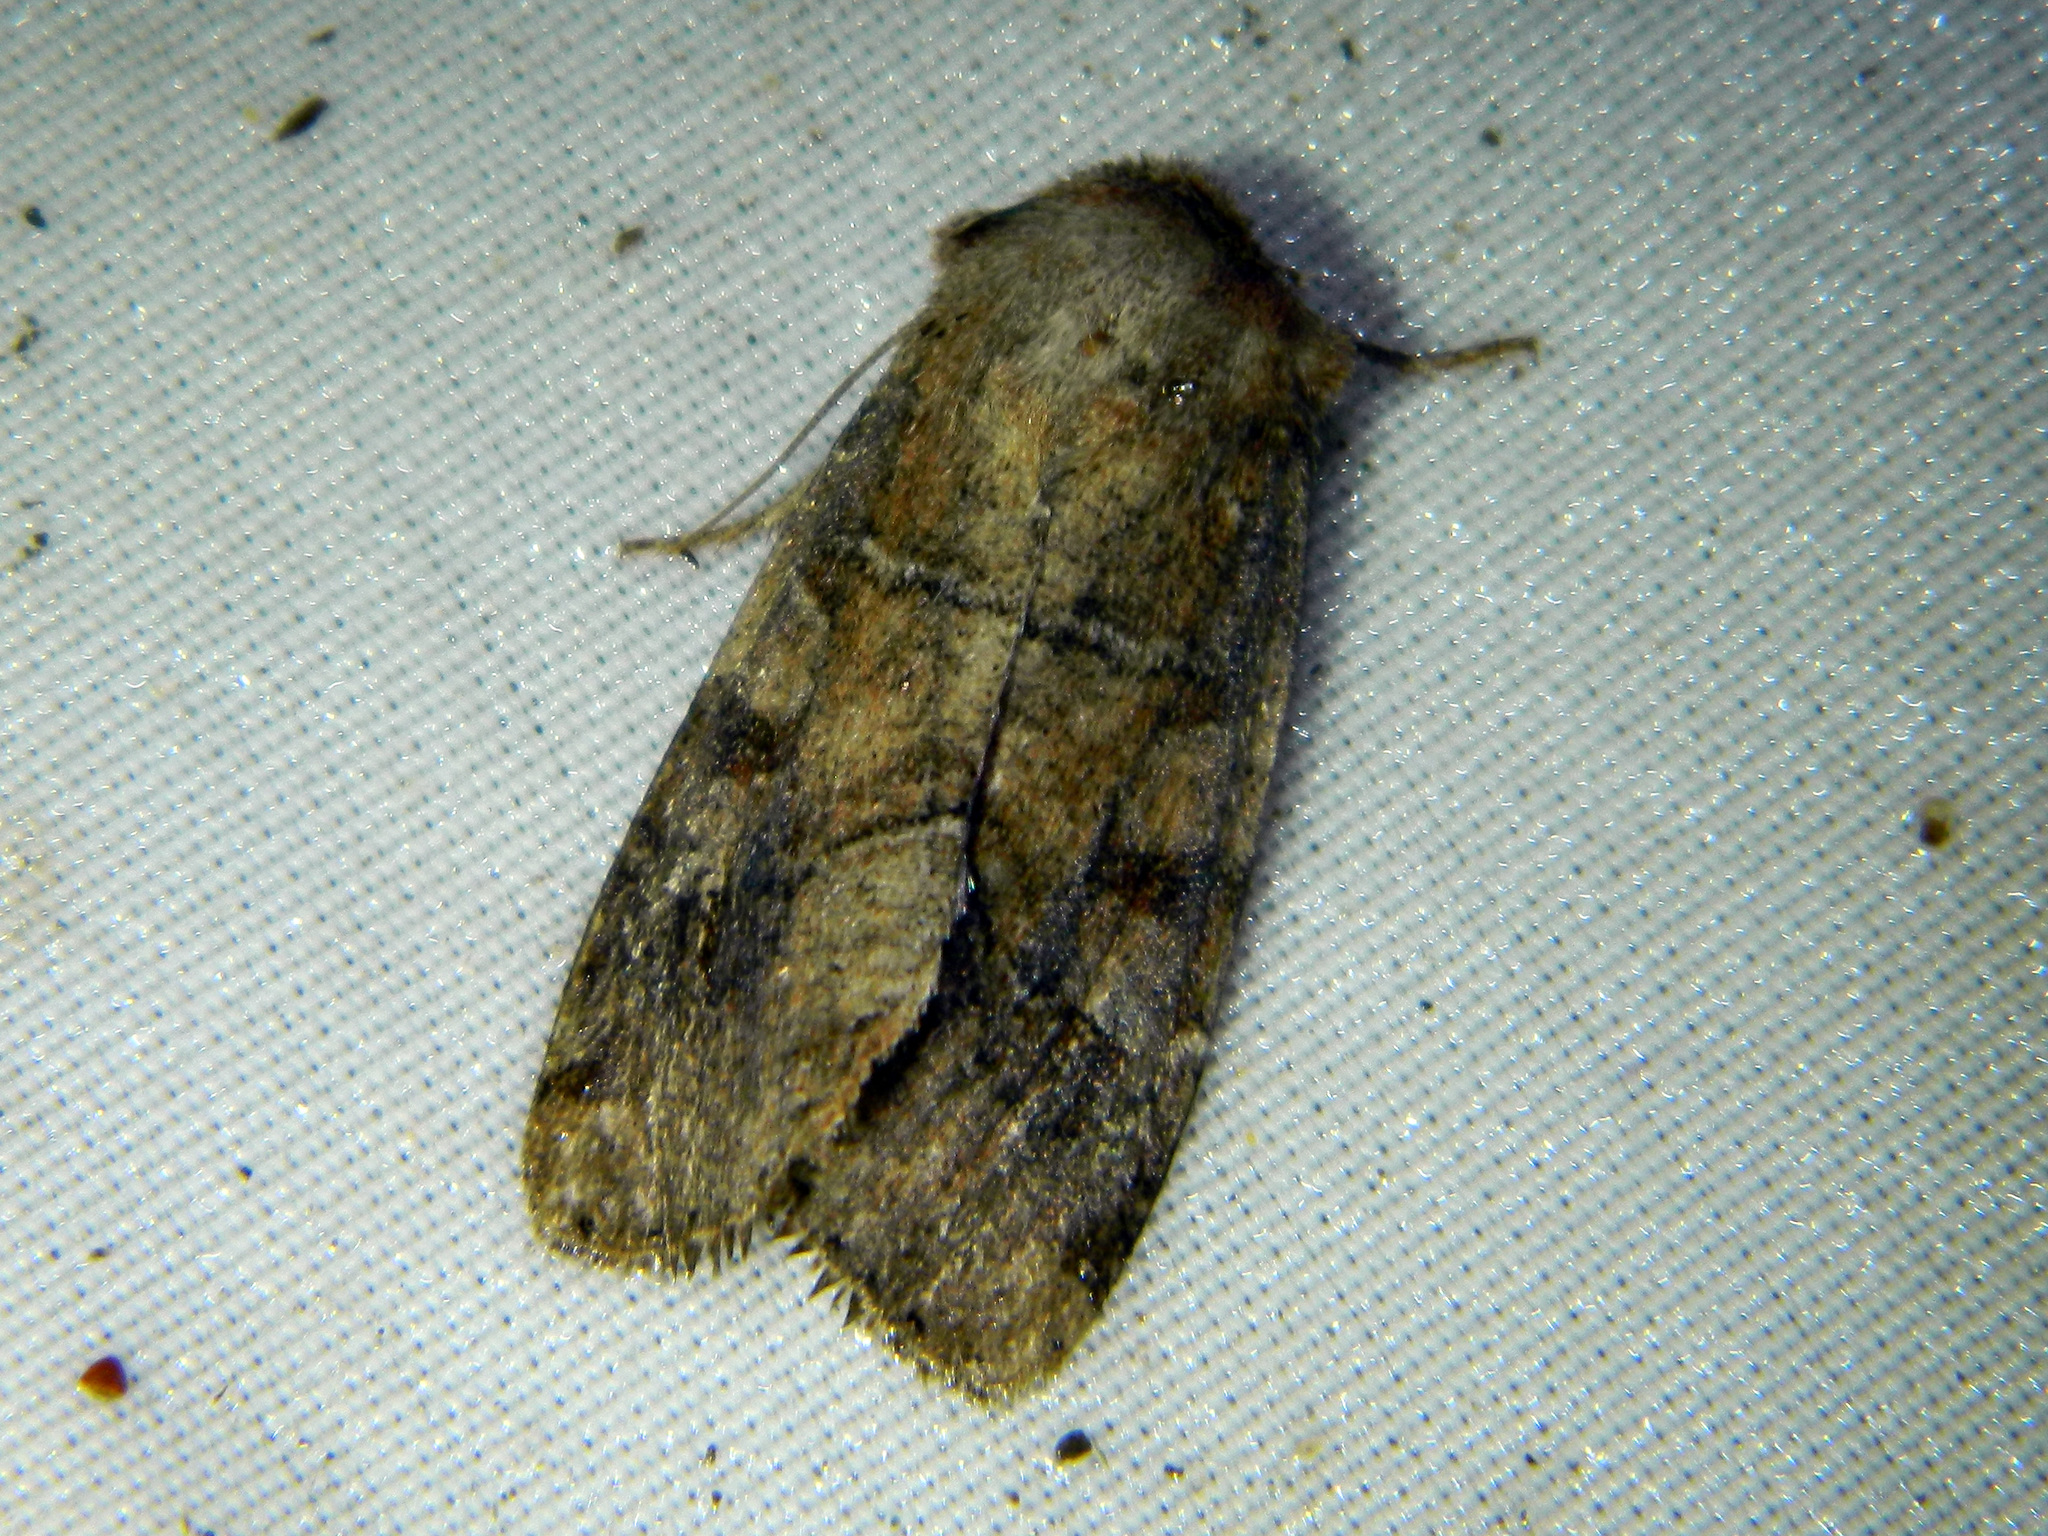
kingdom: Animalia
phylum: Arthropoda
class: Insecta
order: Lepidoptera
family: Noctuidae
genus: Crocigrapha
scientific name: Crocigrapha normani
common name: Norman's quaker
